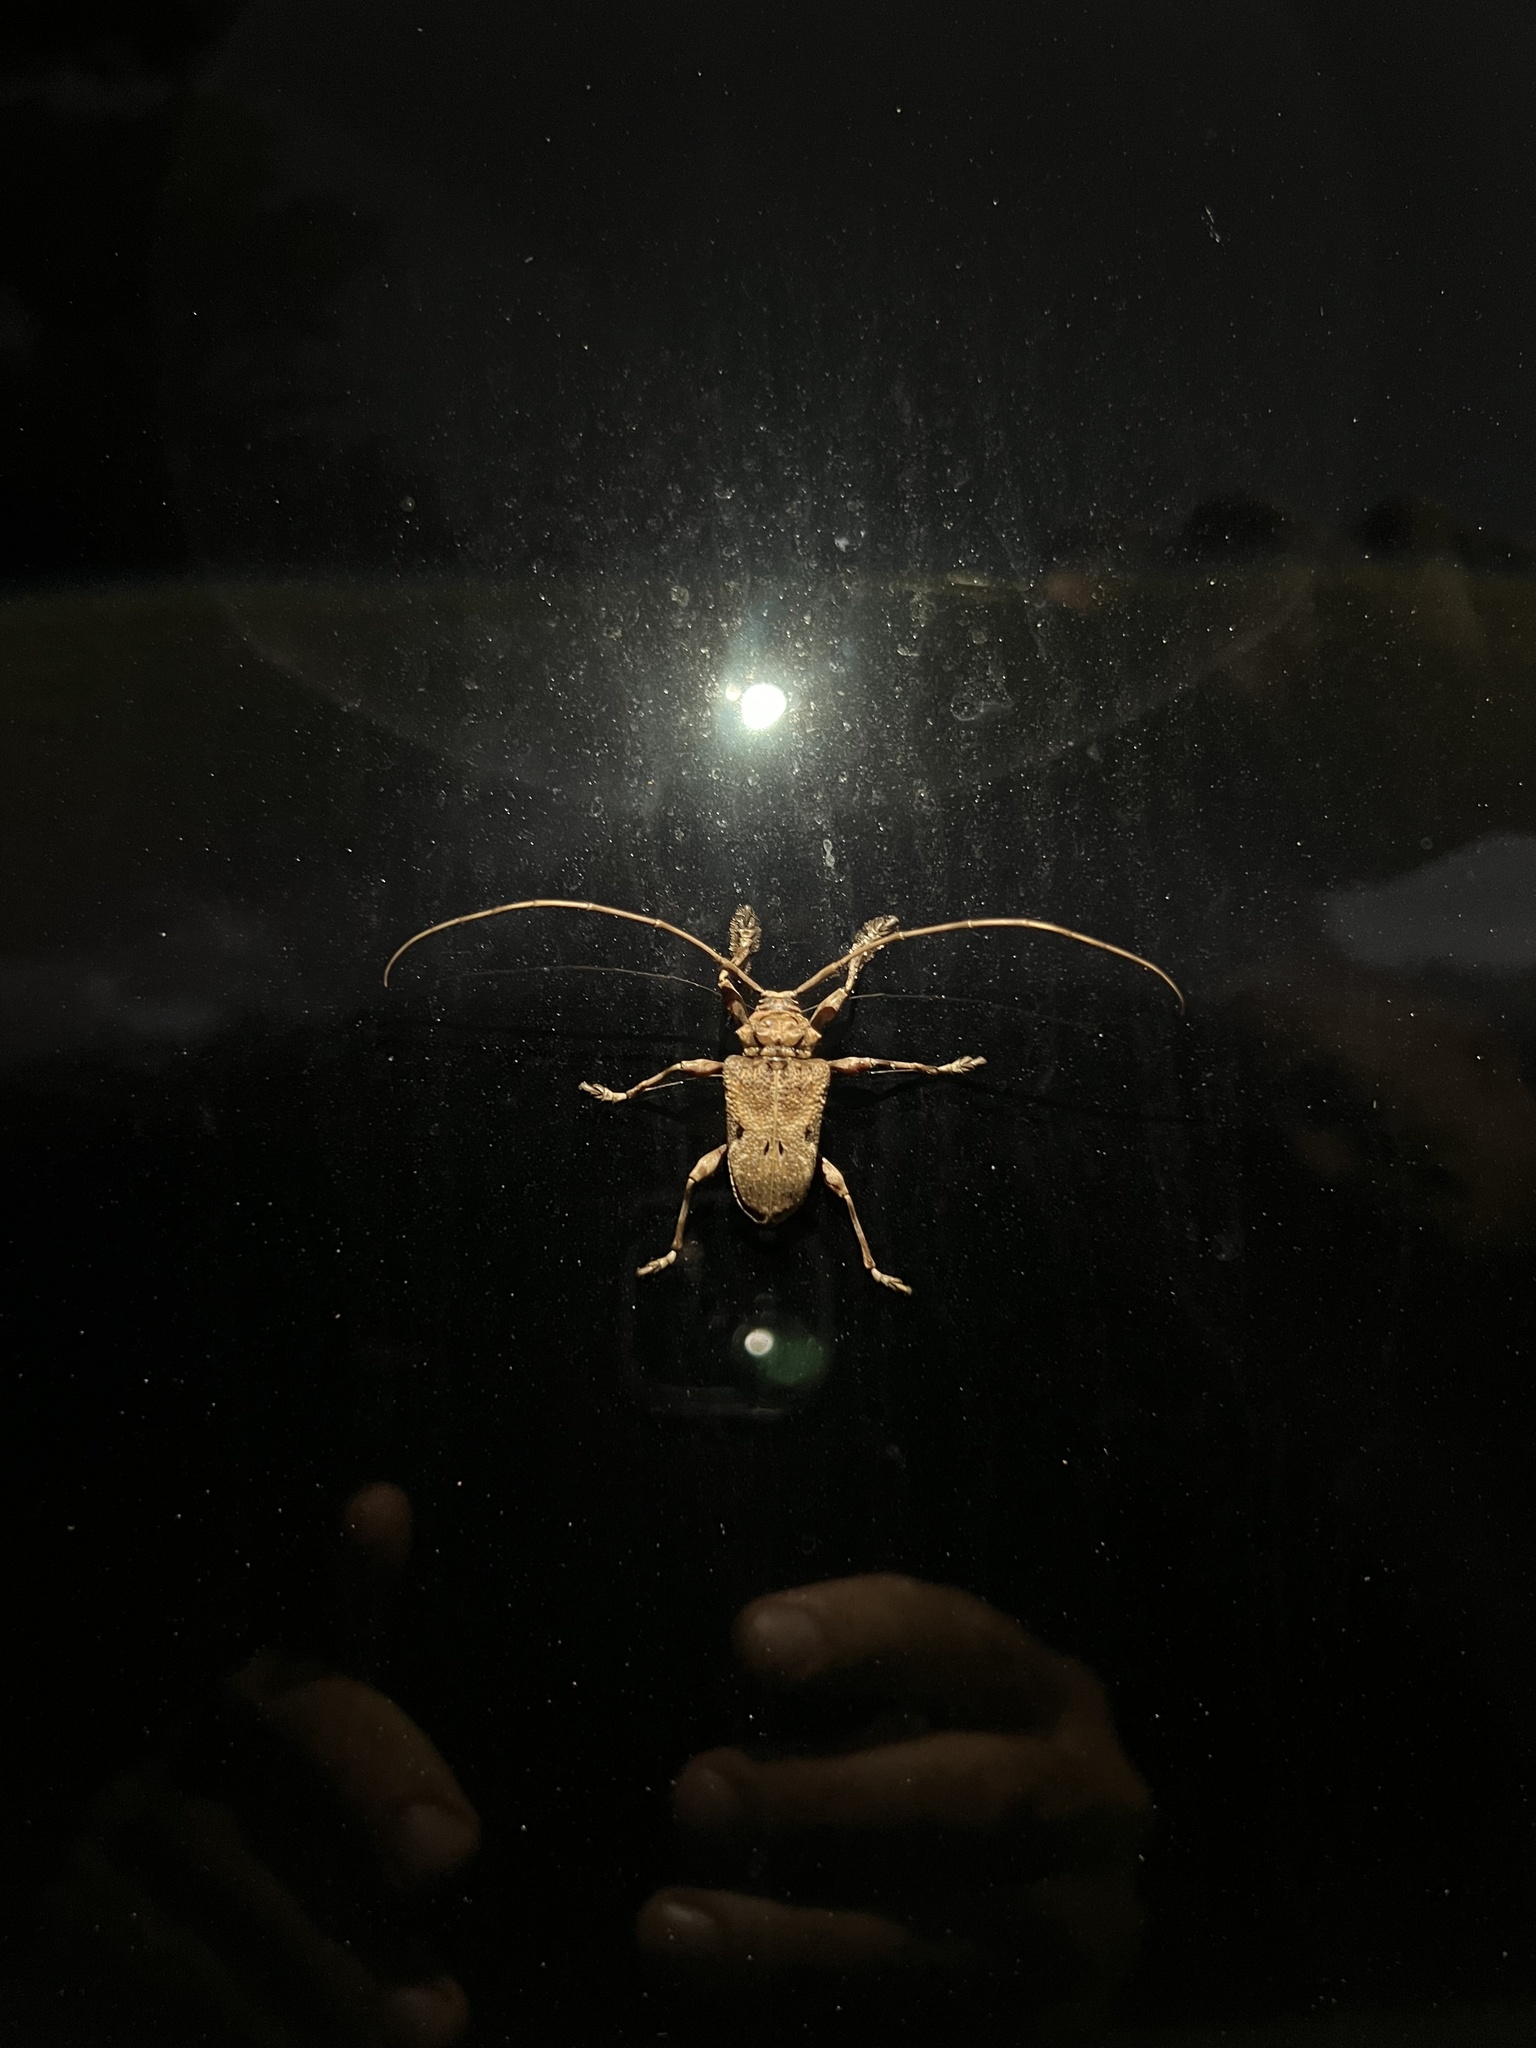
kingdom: Animalia
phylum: Arthropoda
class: Insecta
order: Coleoptera
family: Cerambycidae
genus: Lagocheirus
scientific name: Lagocheirus araneiformis
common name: Beetle
